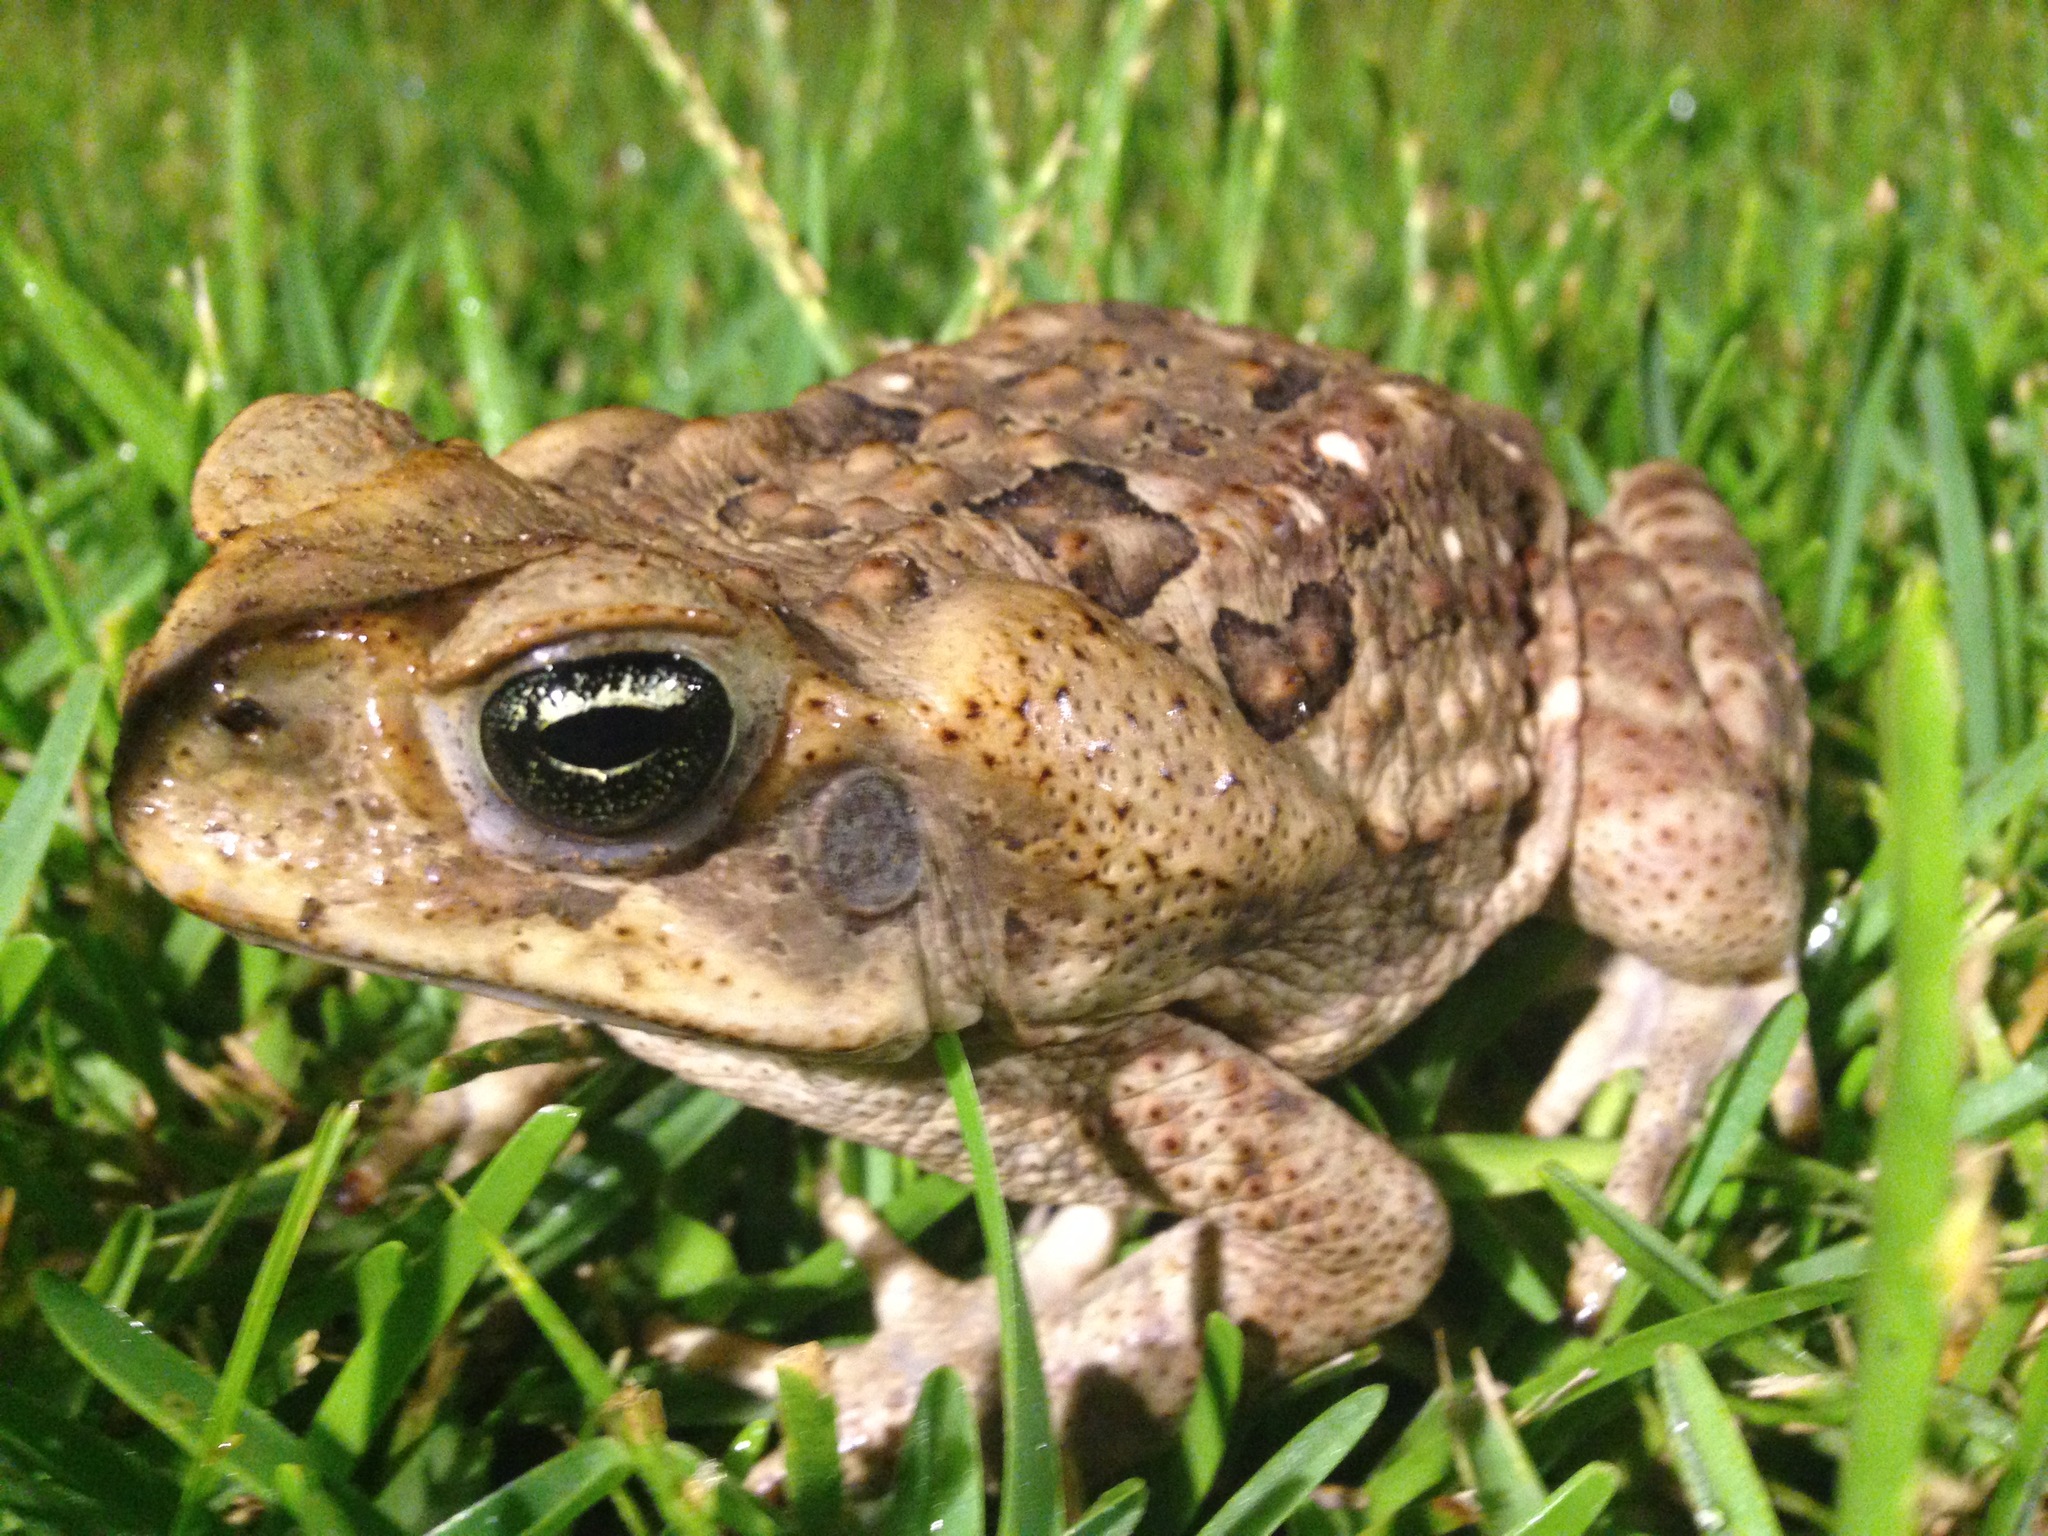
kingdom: Animalia
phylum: Chordata
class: Amphibia
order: Anura
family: Bufonidae
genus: Rhinella
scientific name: Rhinella horribilis
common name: Mesoamerican cane toad
